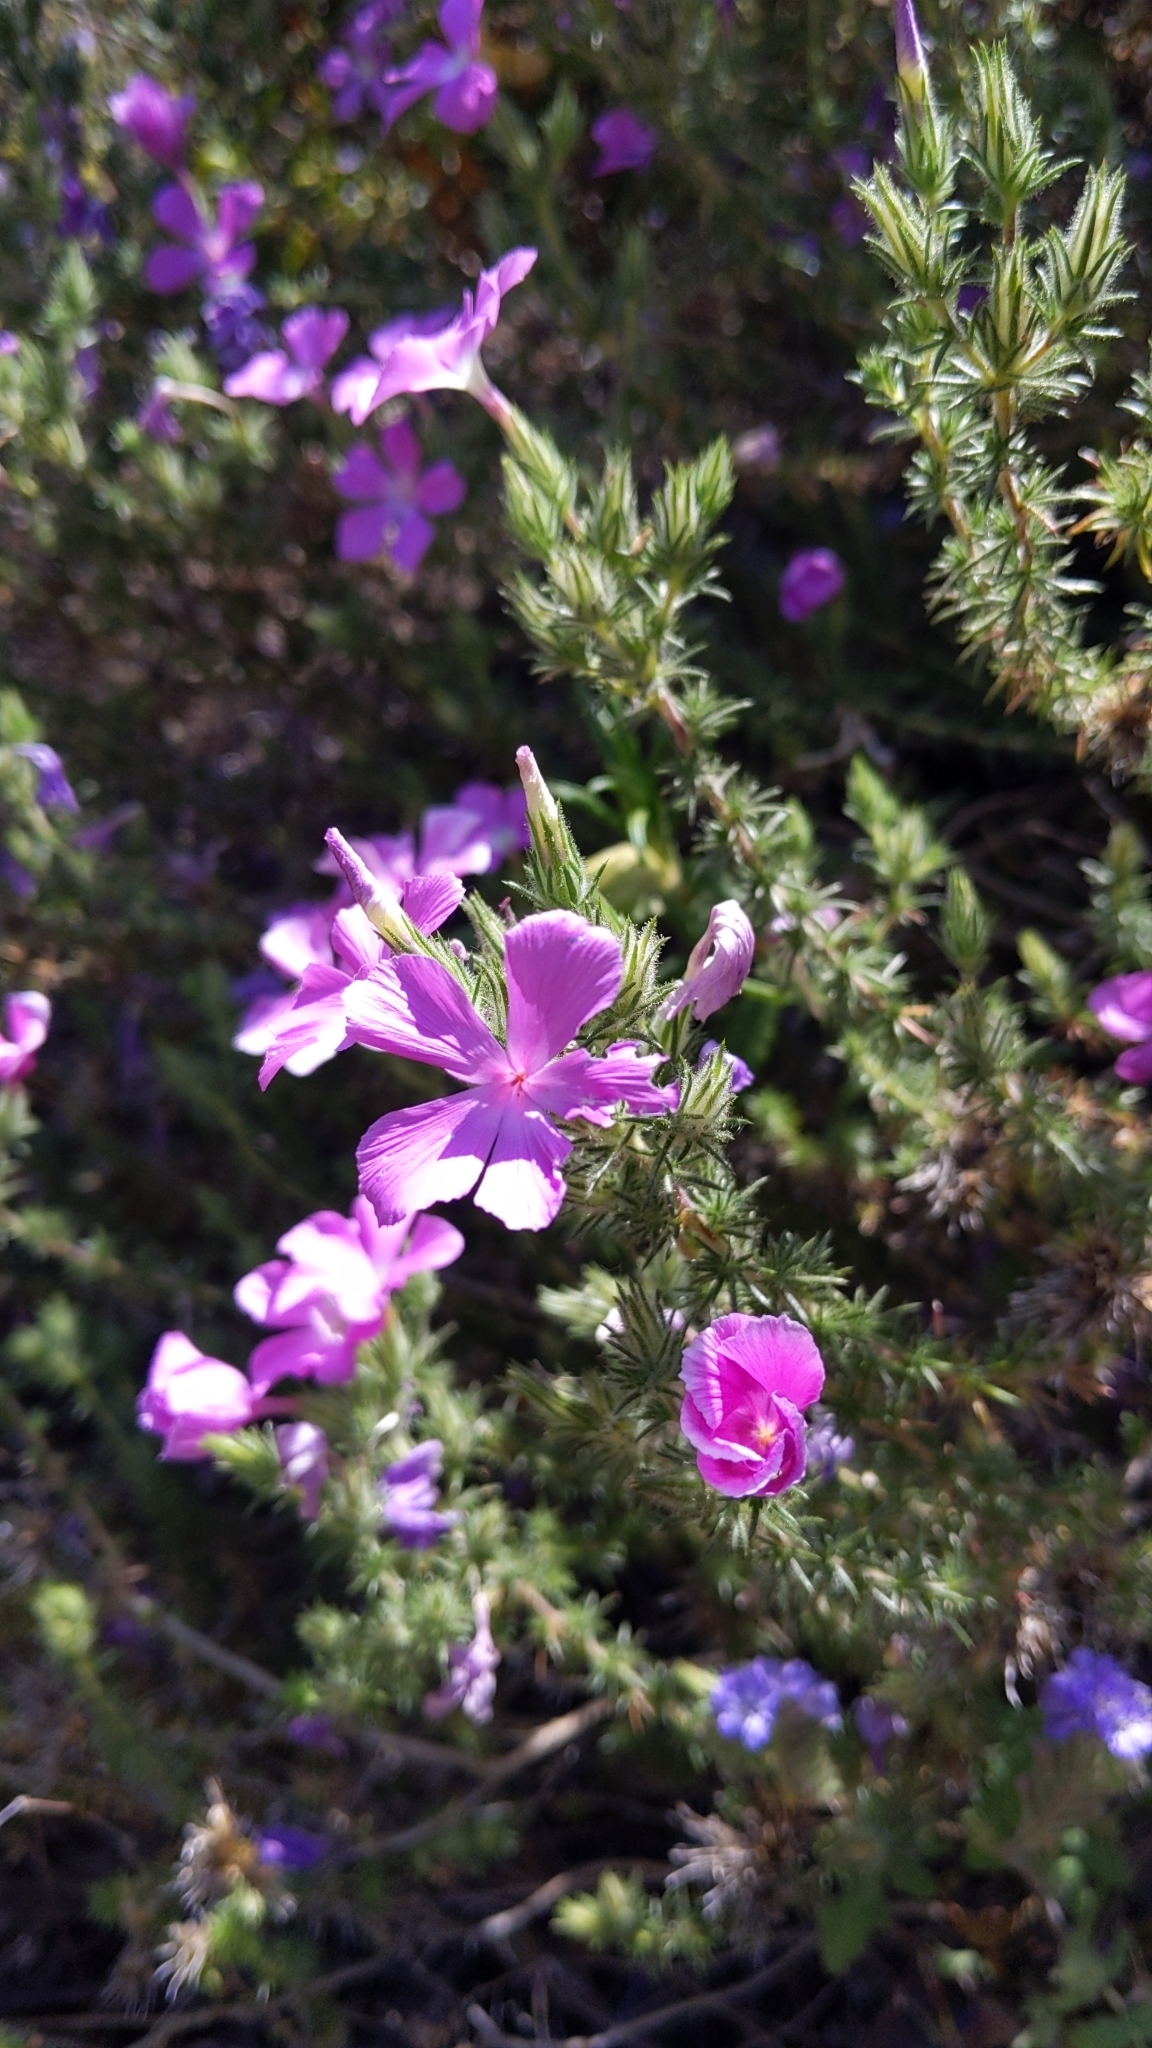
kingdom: Plantae
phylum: Tracheophyta
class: Magnoliopsida
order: Ericales
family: Polemoniaceae
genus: Linanthus
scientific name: Linanthus californicus
